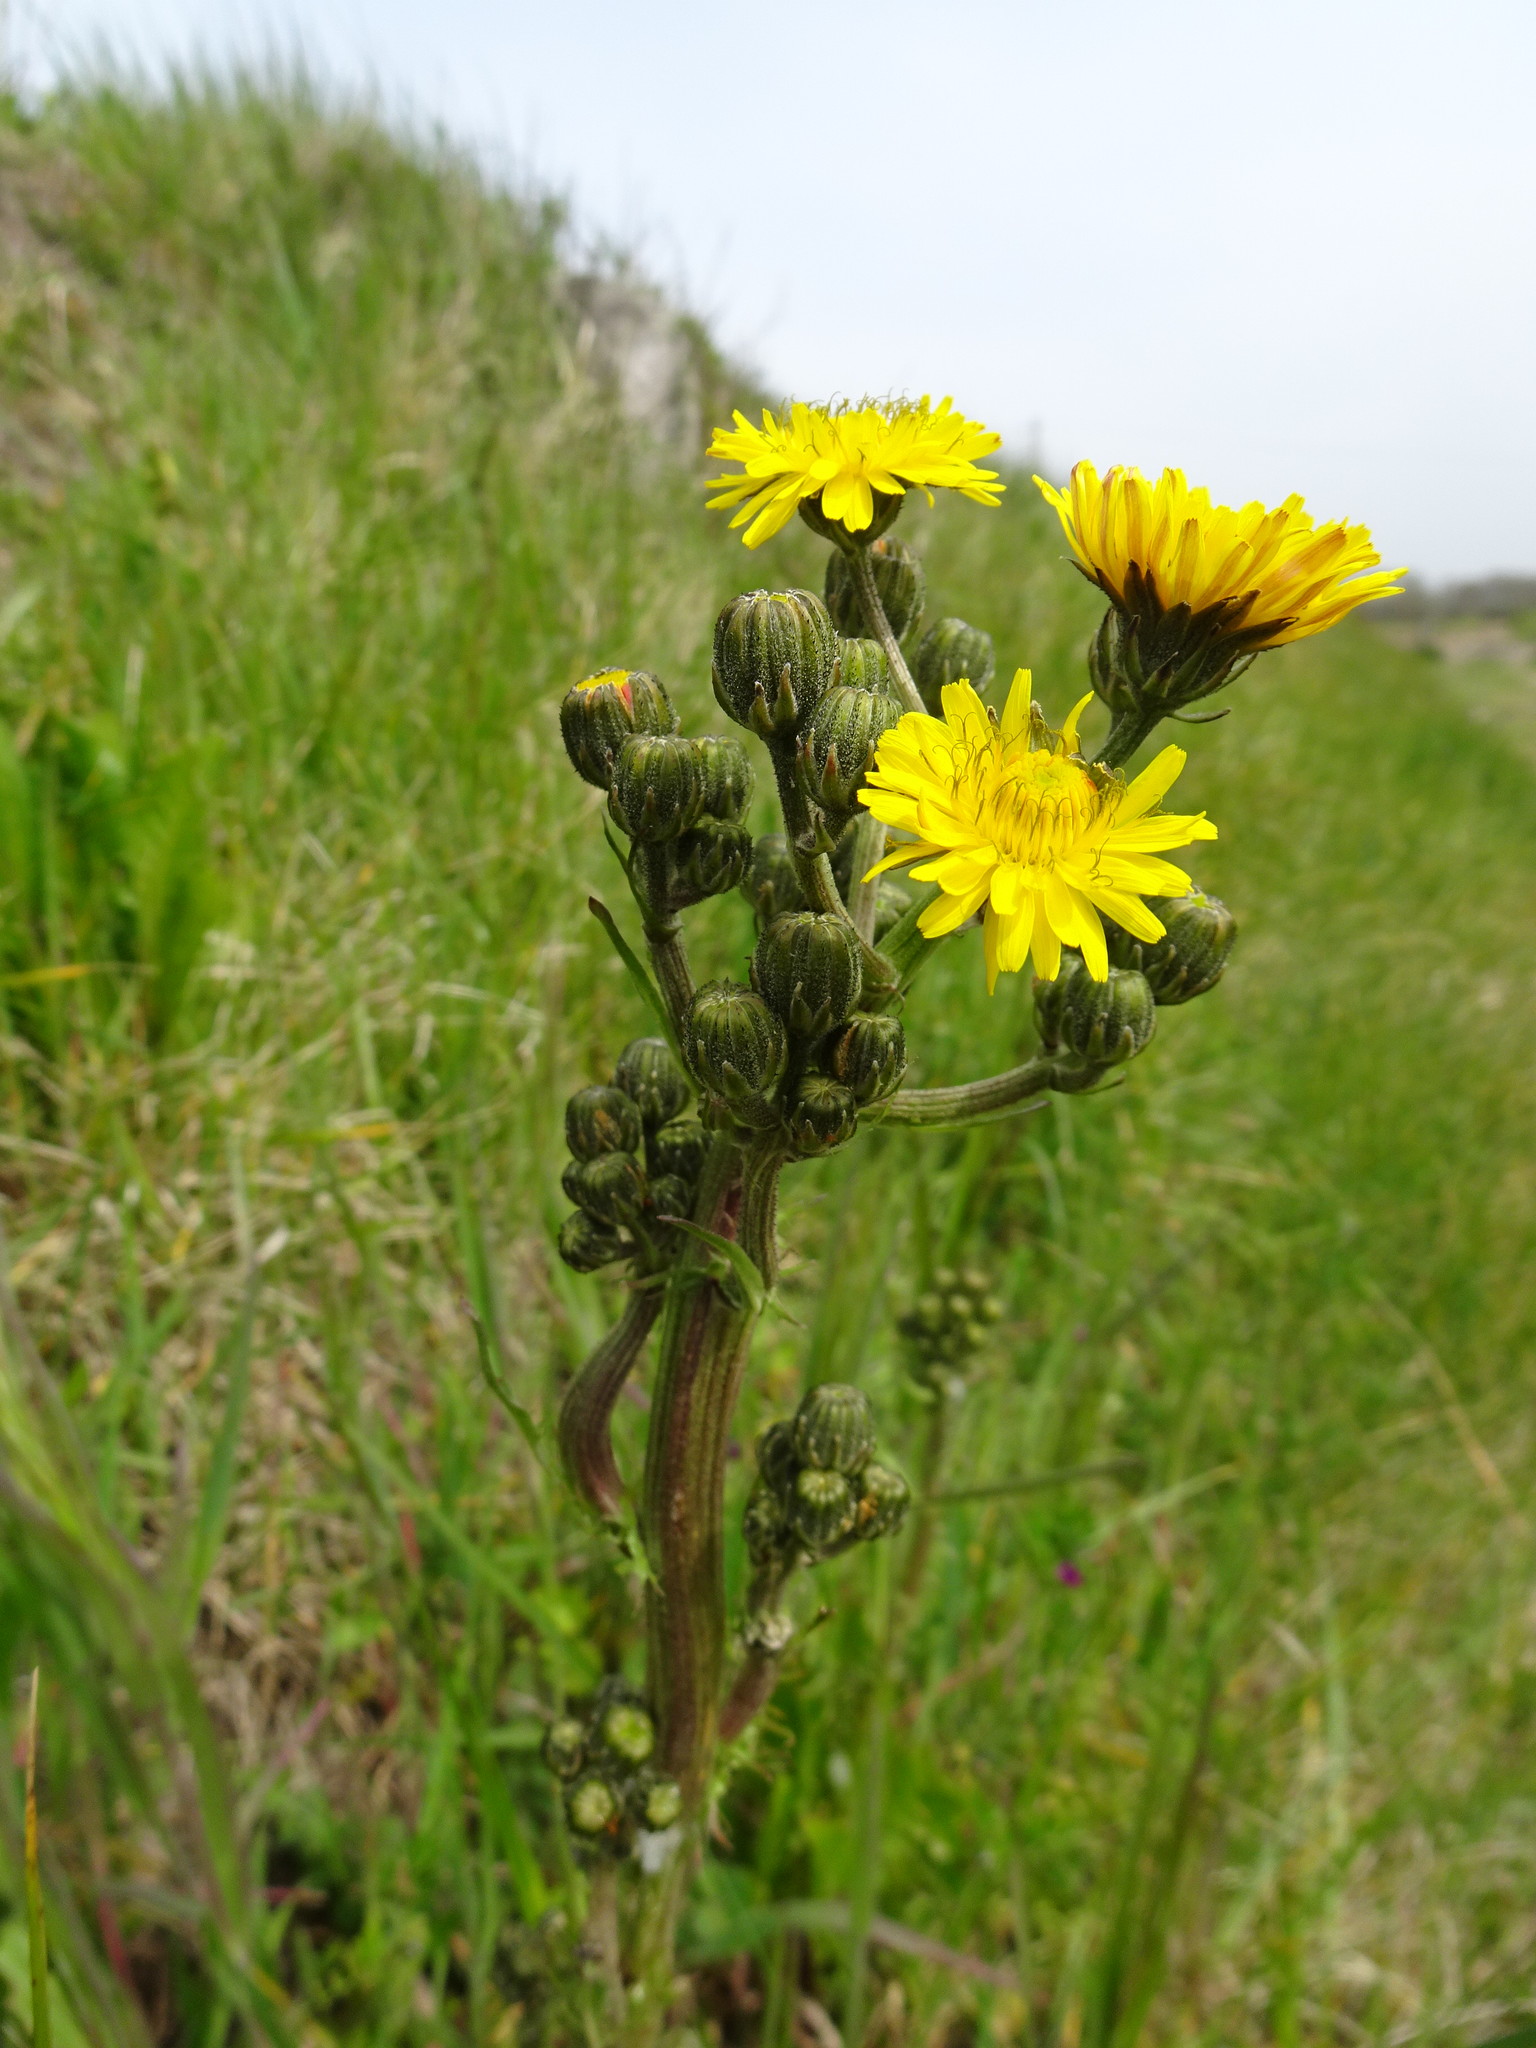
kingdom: Plantae
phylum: Tracheophyta
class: Magnoliopsida
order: Asterales
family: Asteraceae
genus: Crepis
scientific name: Crepis biennis
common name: Rough hawk's-beard
